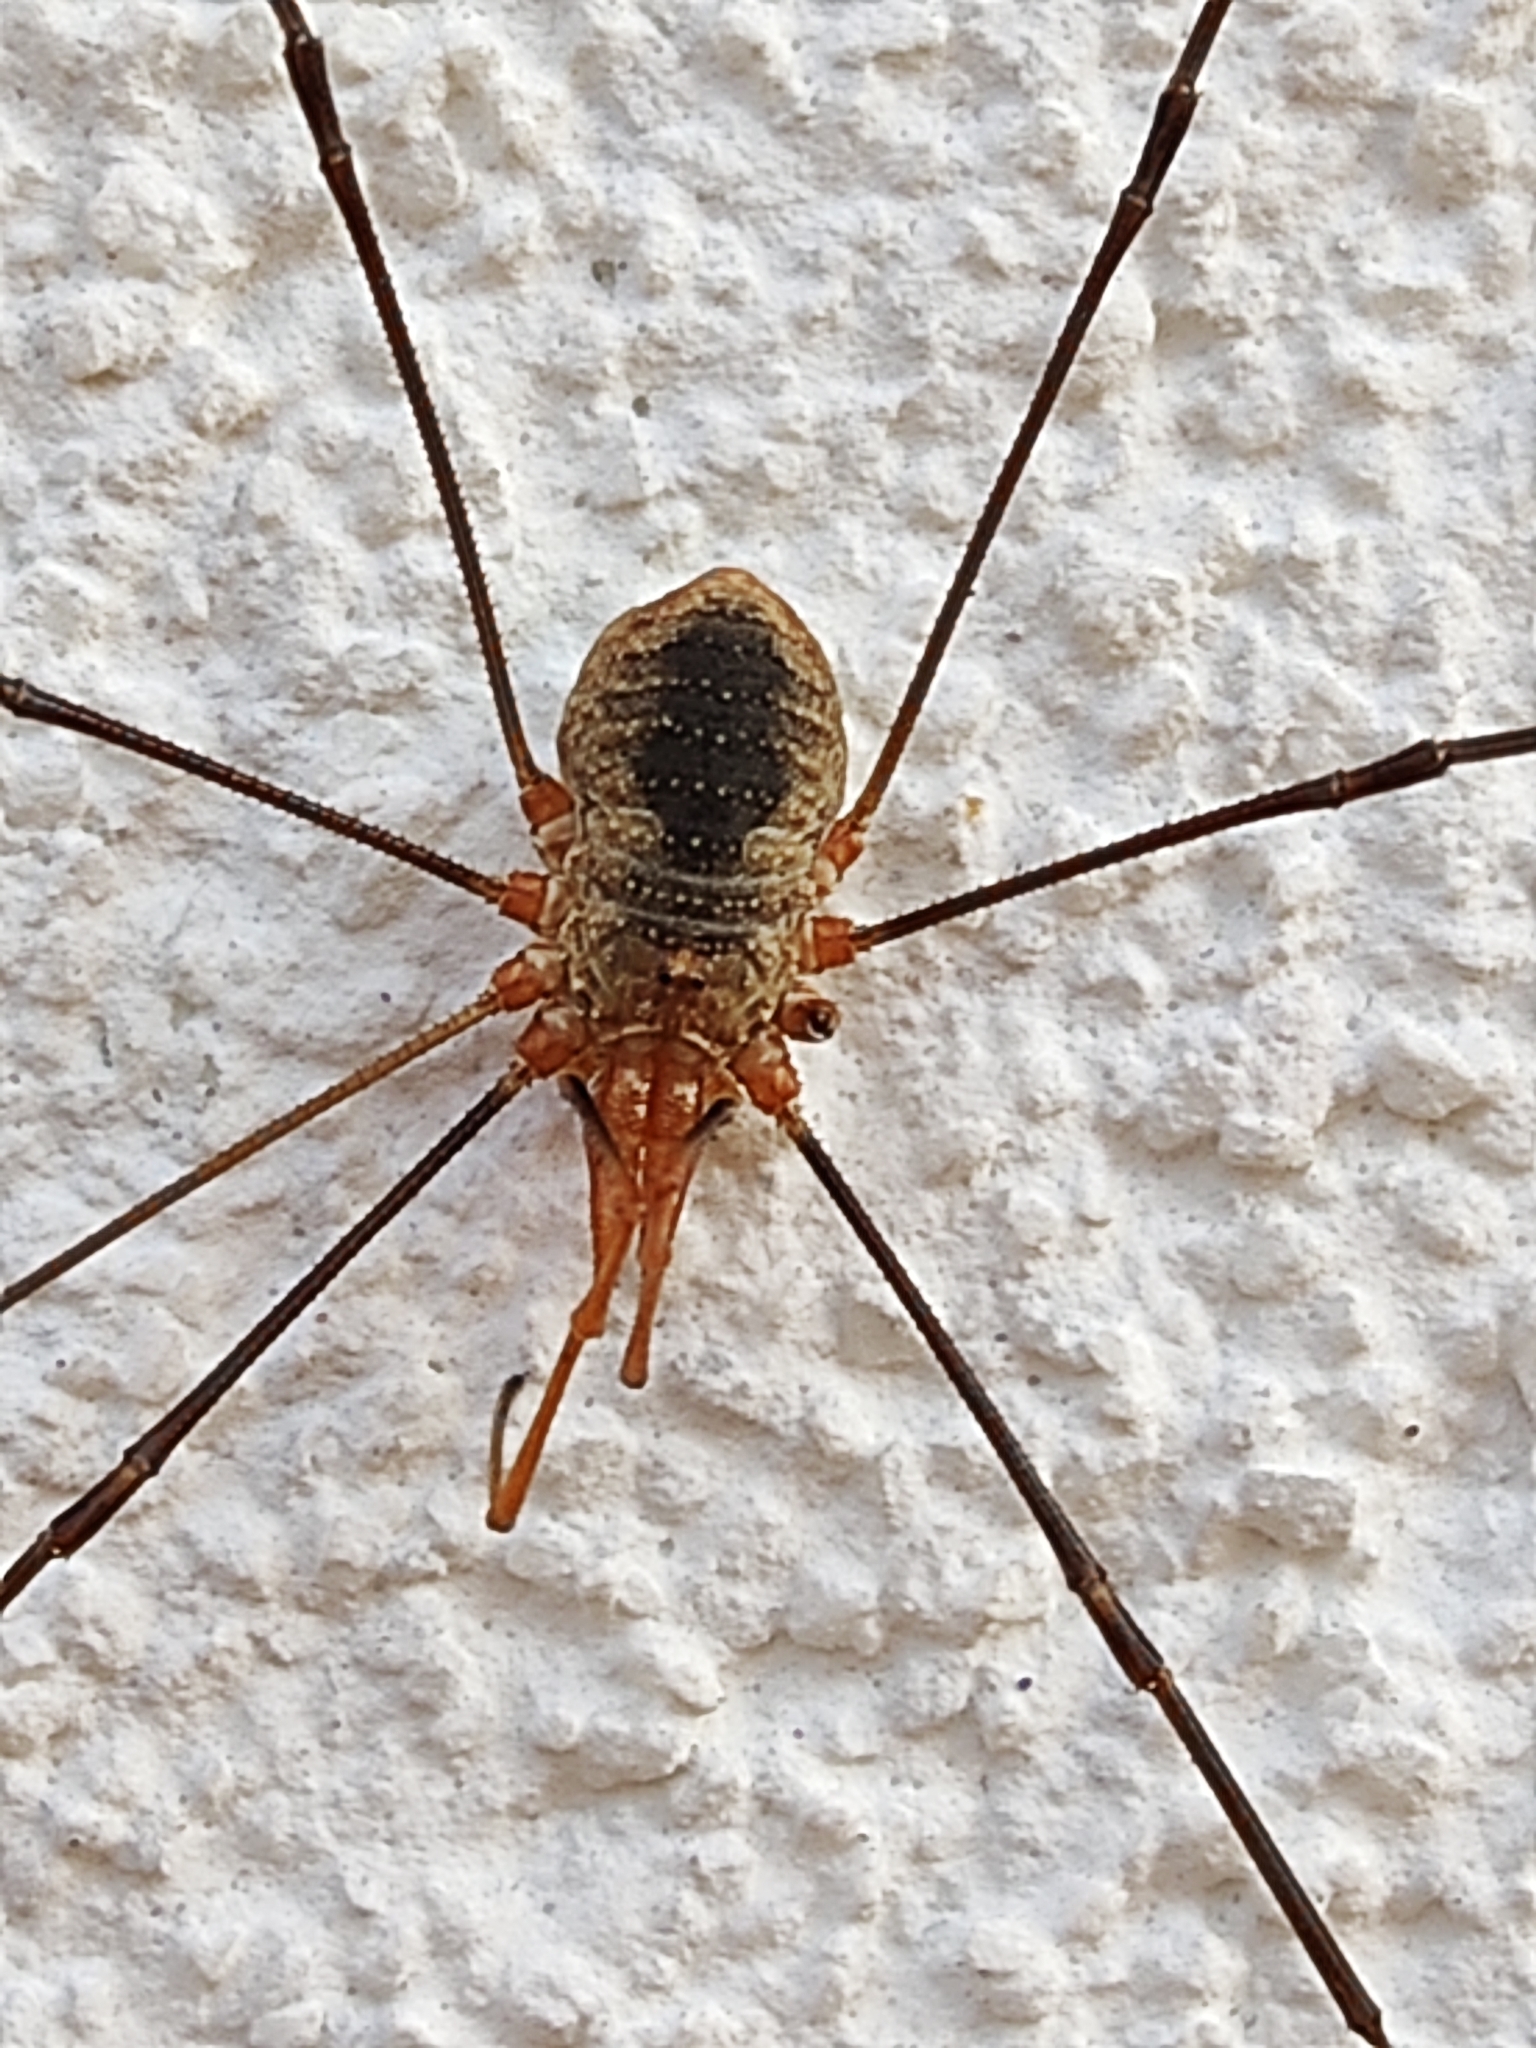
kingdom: Animalia
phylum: Arthropoda
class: Arachnida
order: Opiliones
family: Phalangiidae
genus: Phalangium
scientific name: Phalangium opilio
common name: Daddy longleg
